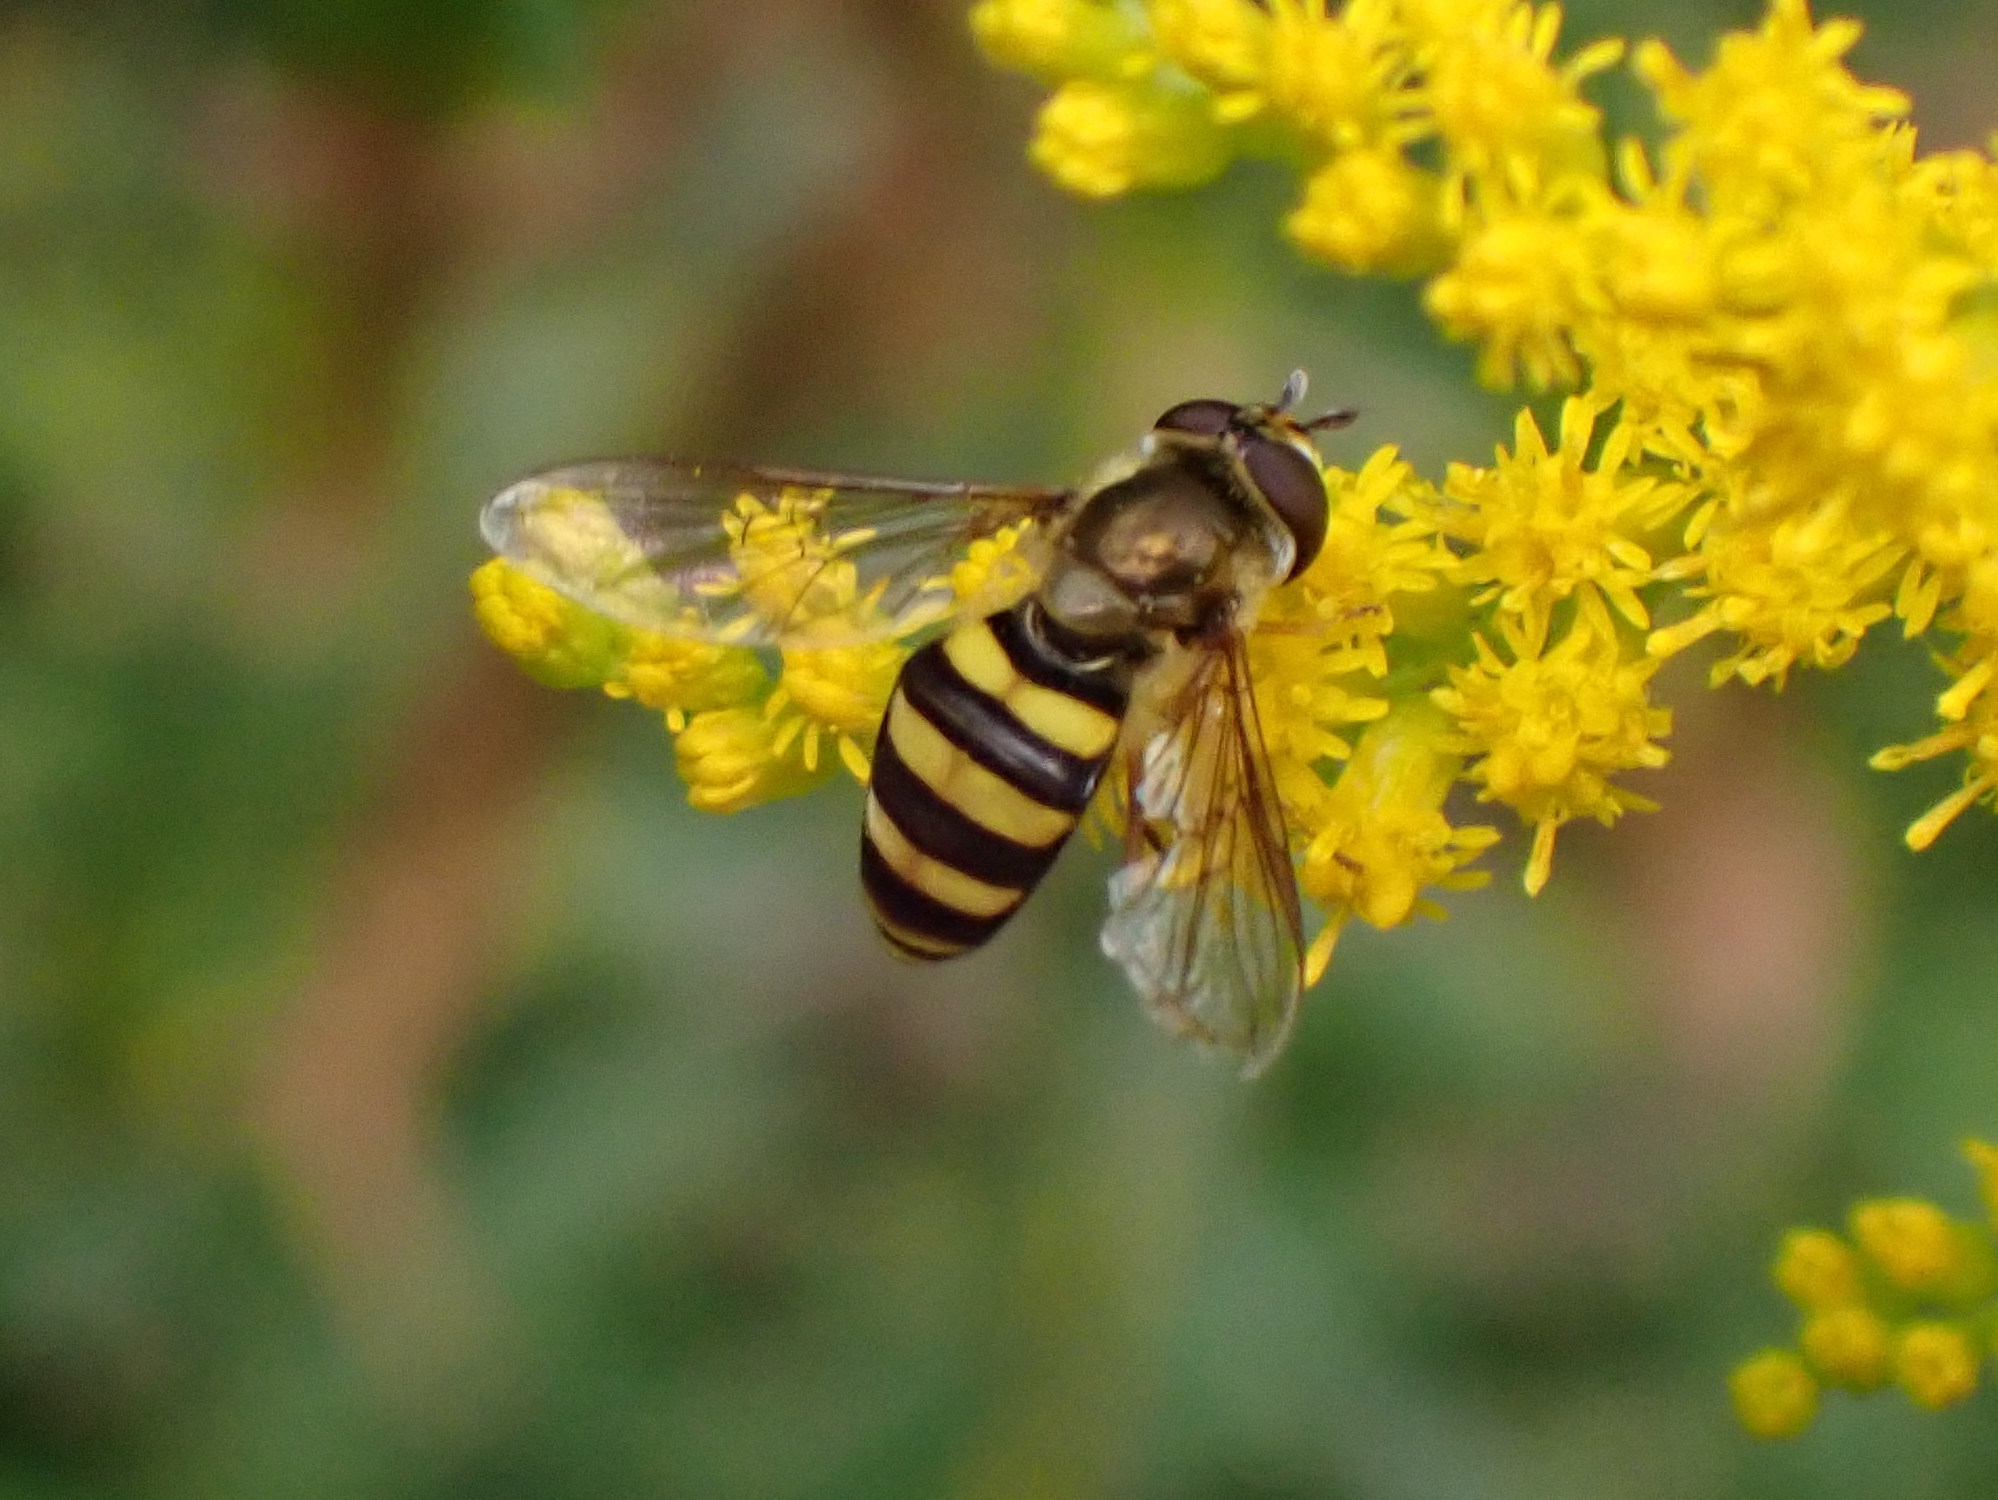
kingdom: Animalia
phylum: Arthropoda
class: Insecta
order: Diptera
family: Syrphidae
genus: Eupeodes
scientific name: Eupeodes
